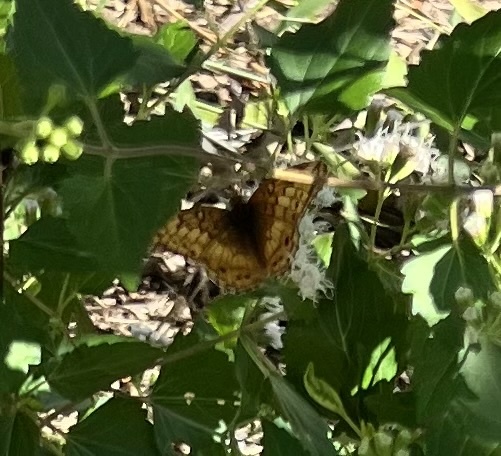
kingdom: Animalia
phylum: Arthropoda
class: Insecta
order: Lepidoptera
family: Nymphalidae
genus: Euptoieta
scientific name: Euptoieta claudia
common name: Variegated fritillary
